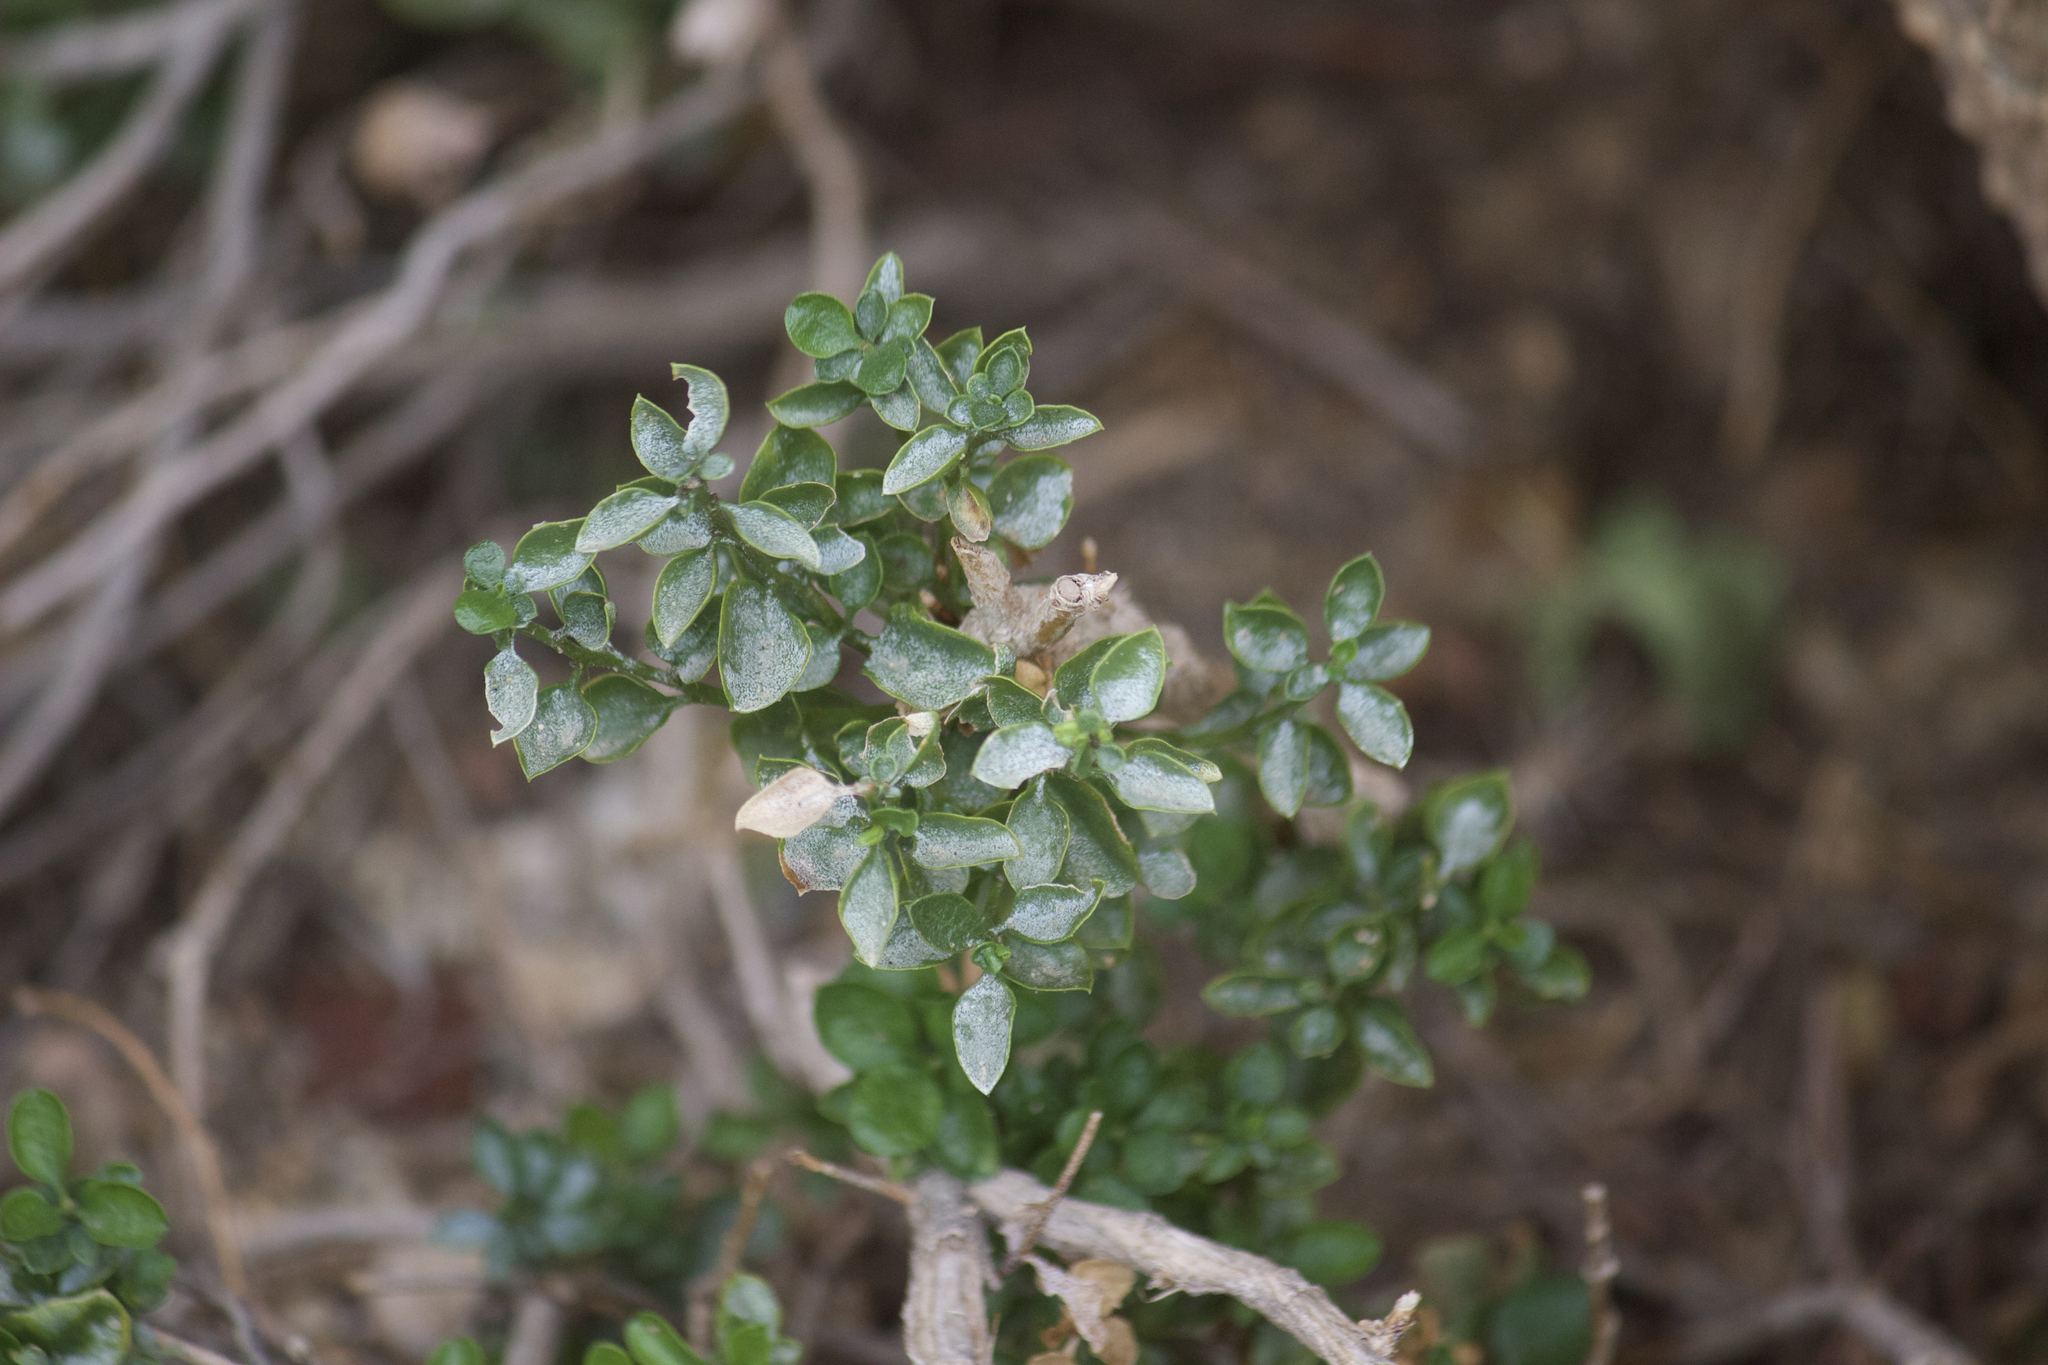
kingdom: Plantae
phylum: Tracheophyta
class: Magnoliopsida
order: Asterales
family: Asteraceae
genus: Ericameria
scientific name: Ericameria cuneata
